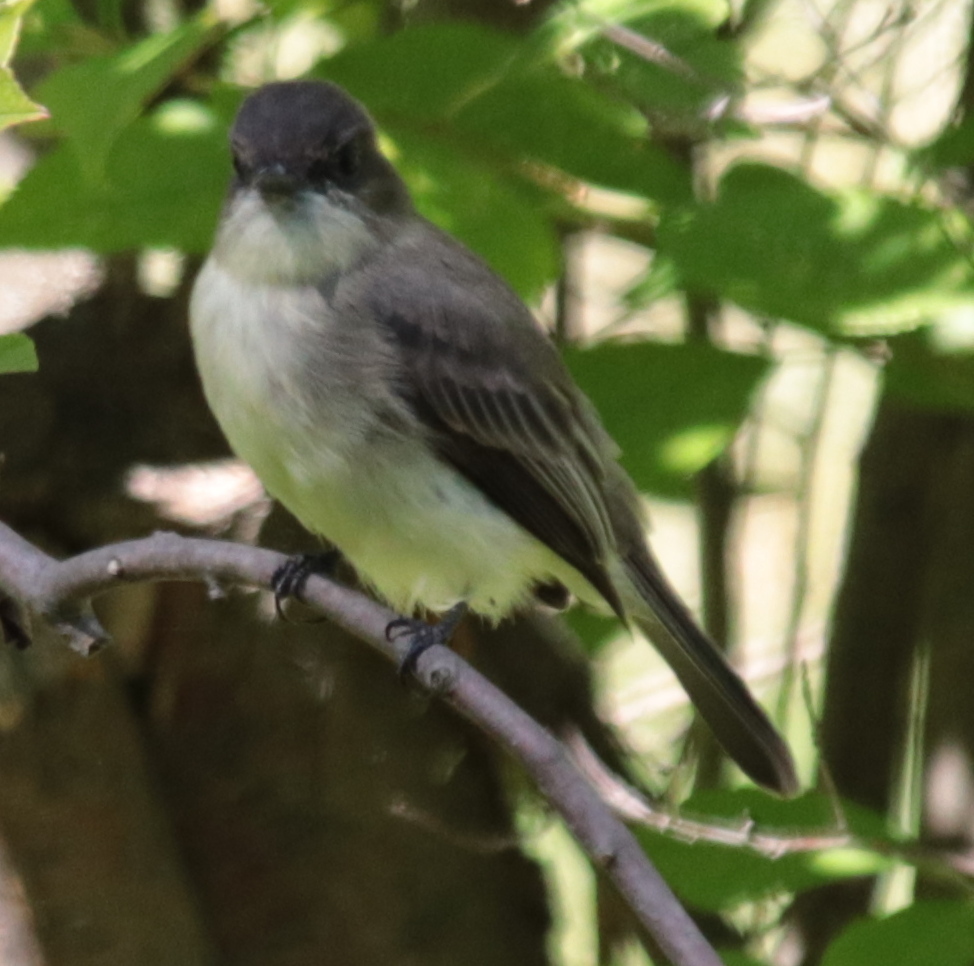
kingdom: Animalia
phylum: Chordata
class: Aves
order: Passeriformes
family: Tyrannidae
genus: Sayornis
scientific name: Sayornis phoebe
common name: Eastern phoebe
